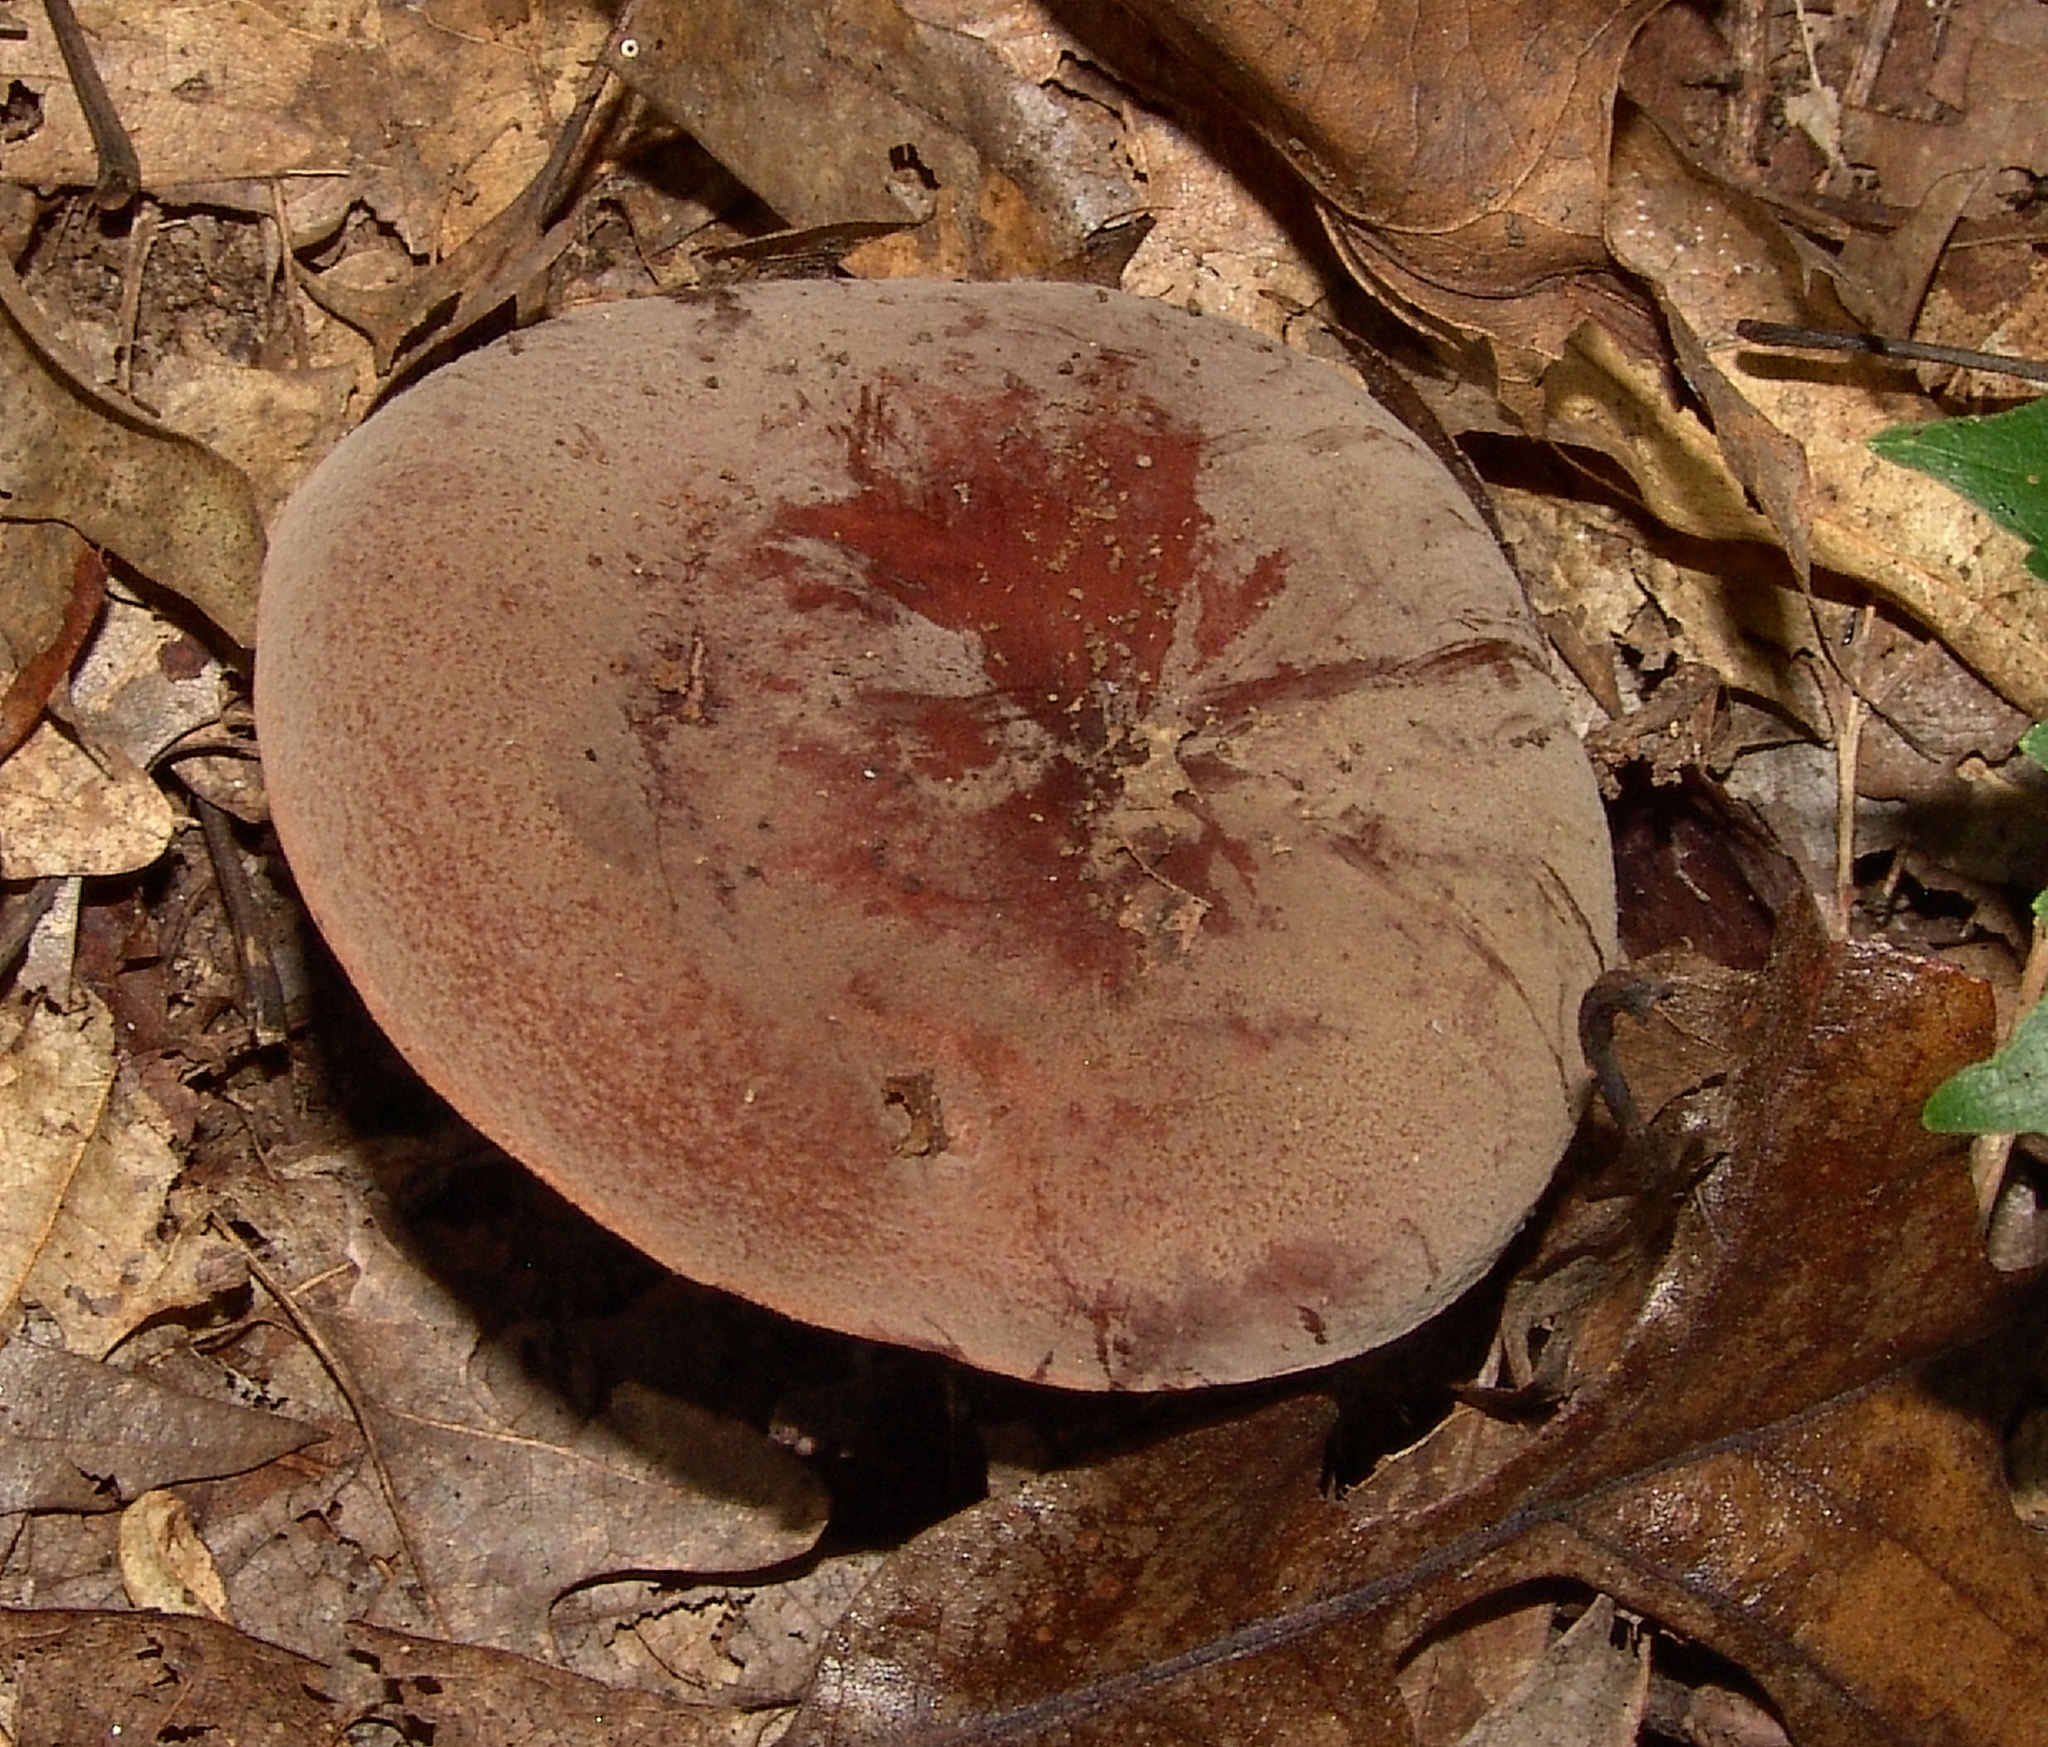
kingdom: Fungi
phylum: Basidiomycota
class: Agaricomycetes
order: Russulales
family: Russulaceae
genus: Lactarius
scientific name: Lactarius corrugis
